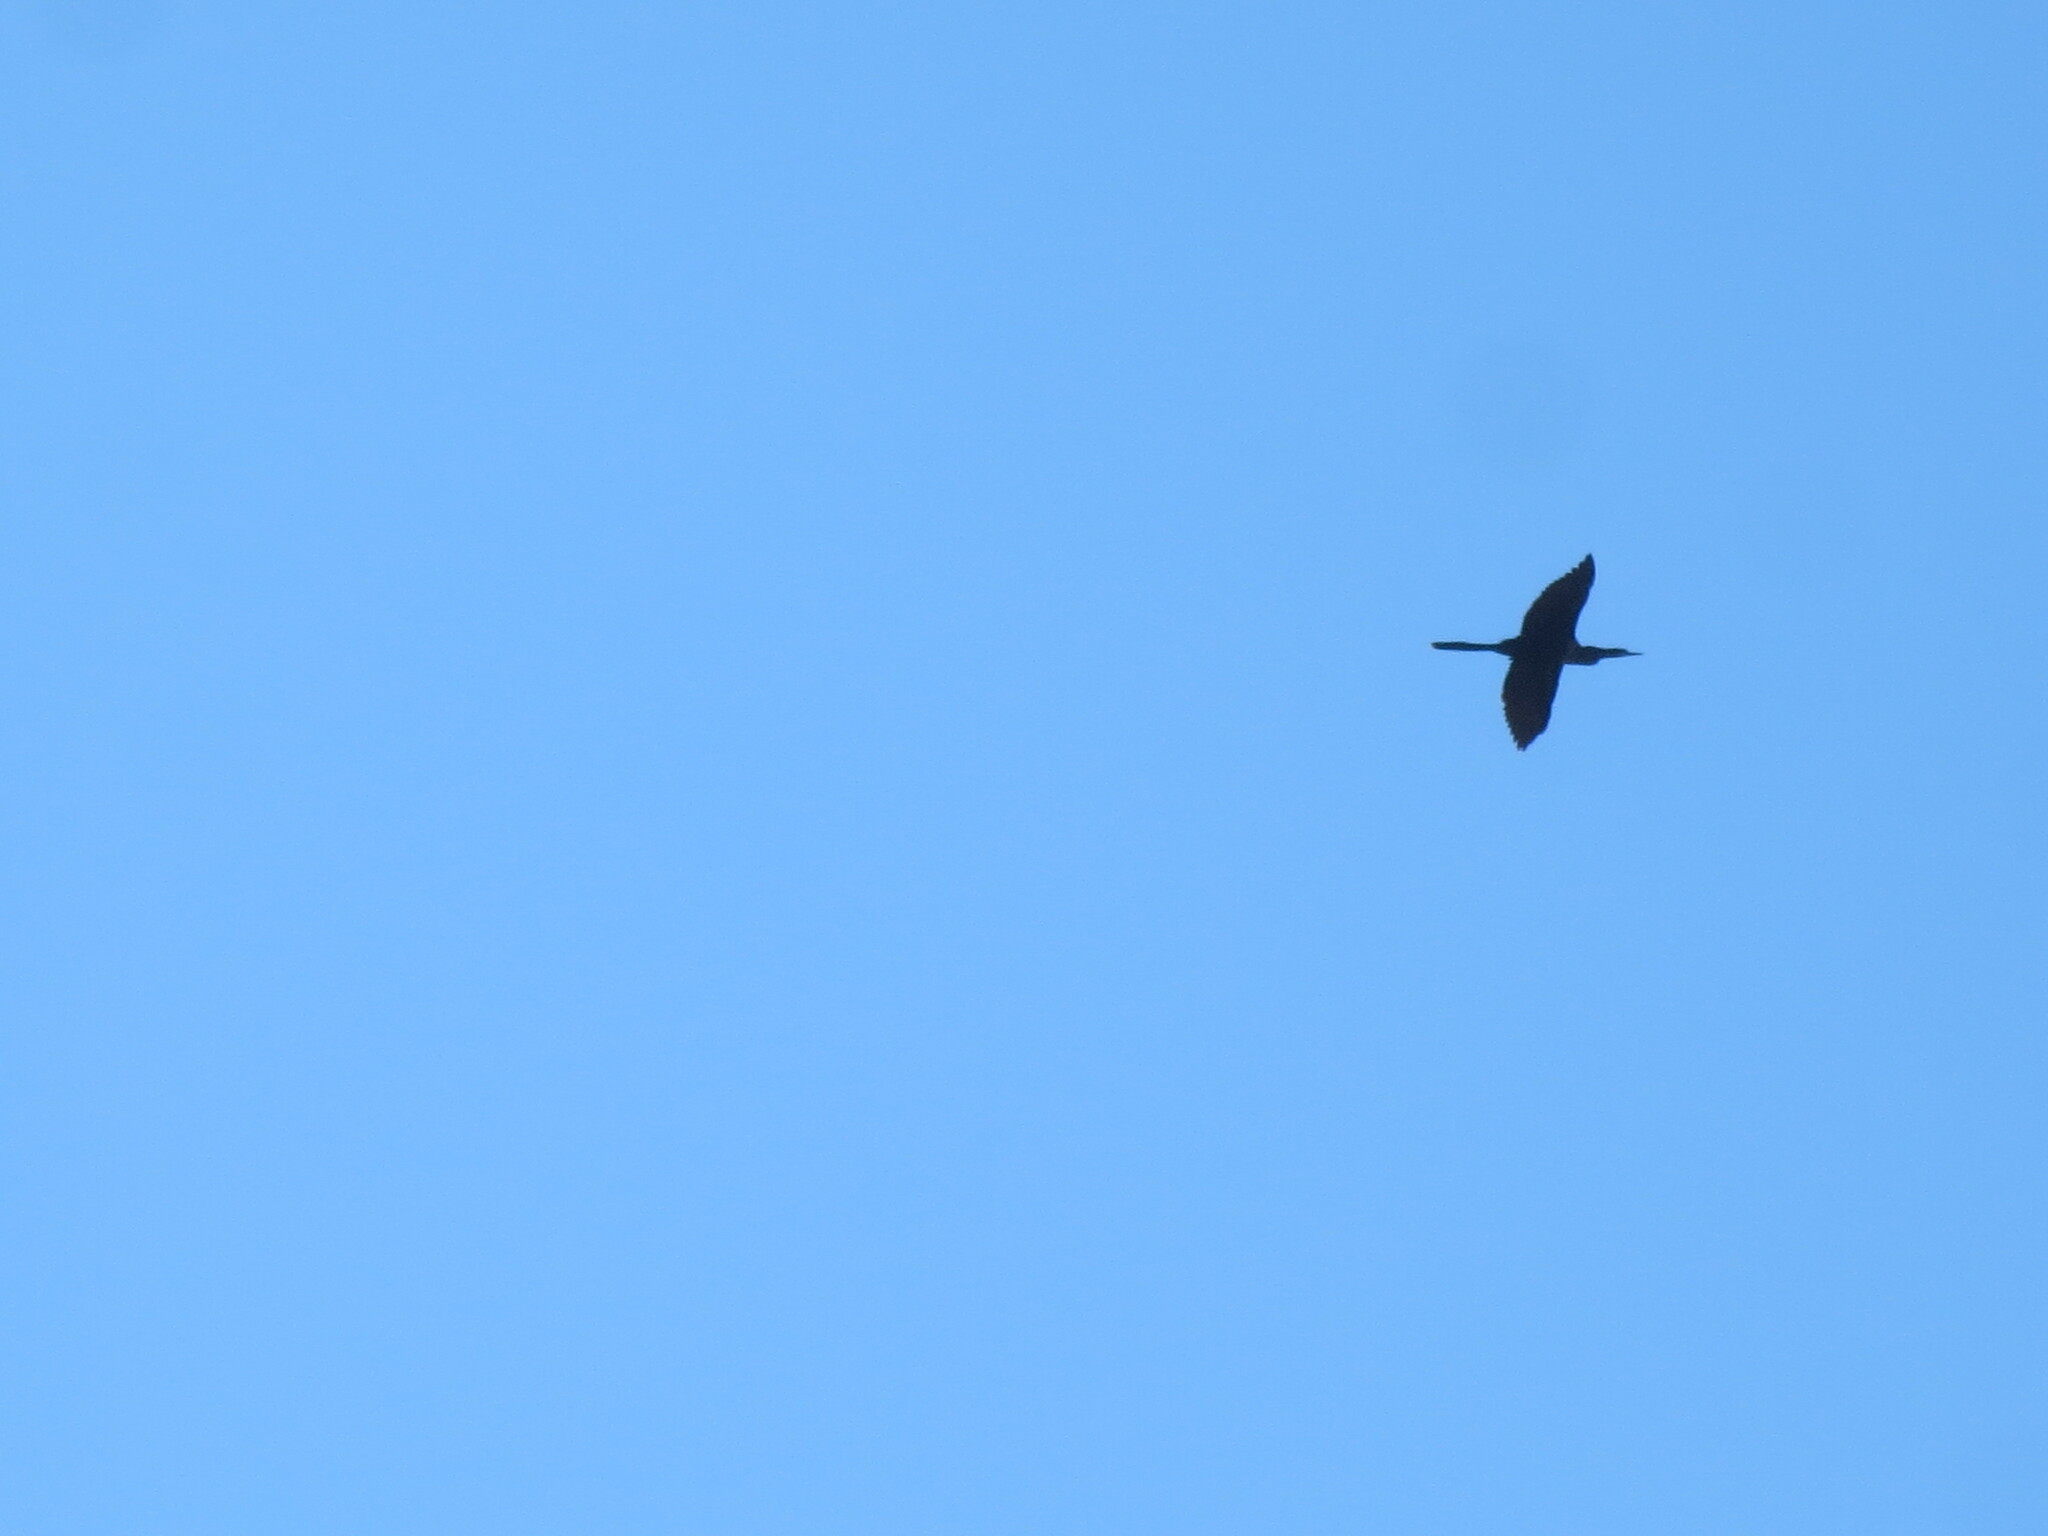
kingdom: Animalia
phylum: Chordata
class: Aves
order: Suliformes
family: Anhingidae
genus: Anhinga
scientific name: Anhinga anhinga
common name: Anhinga
